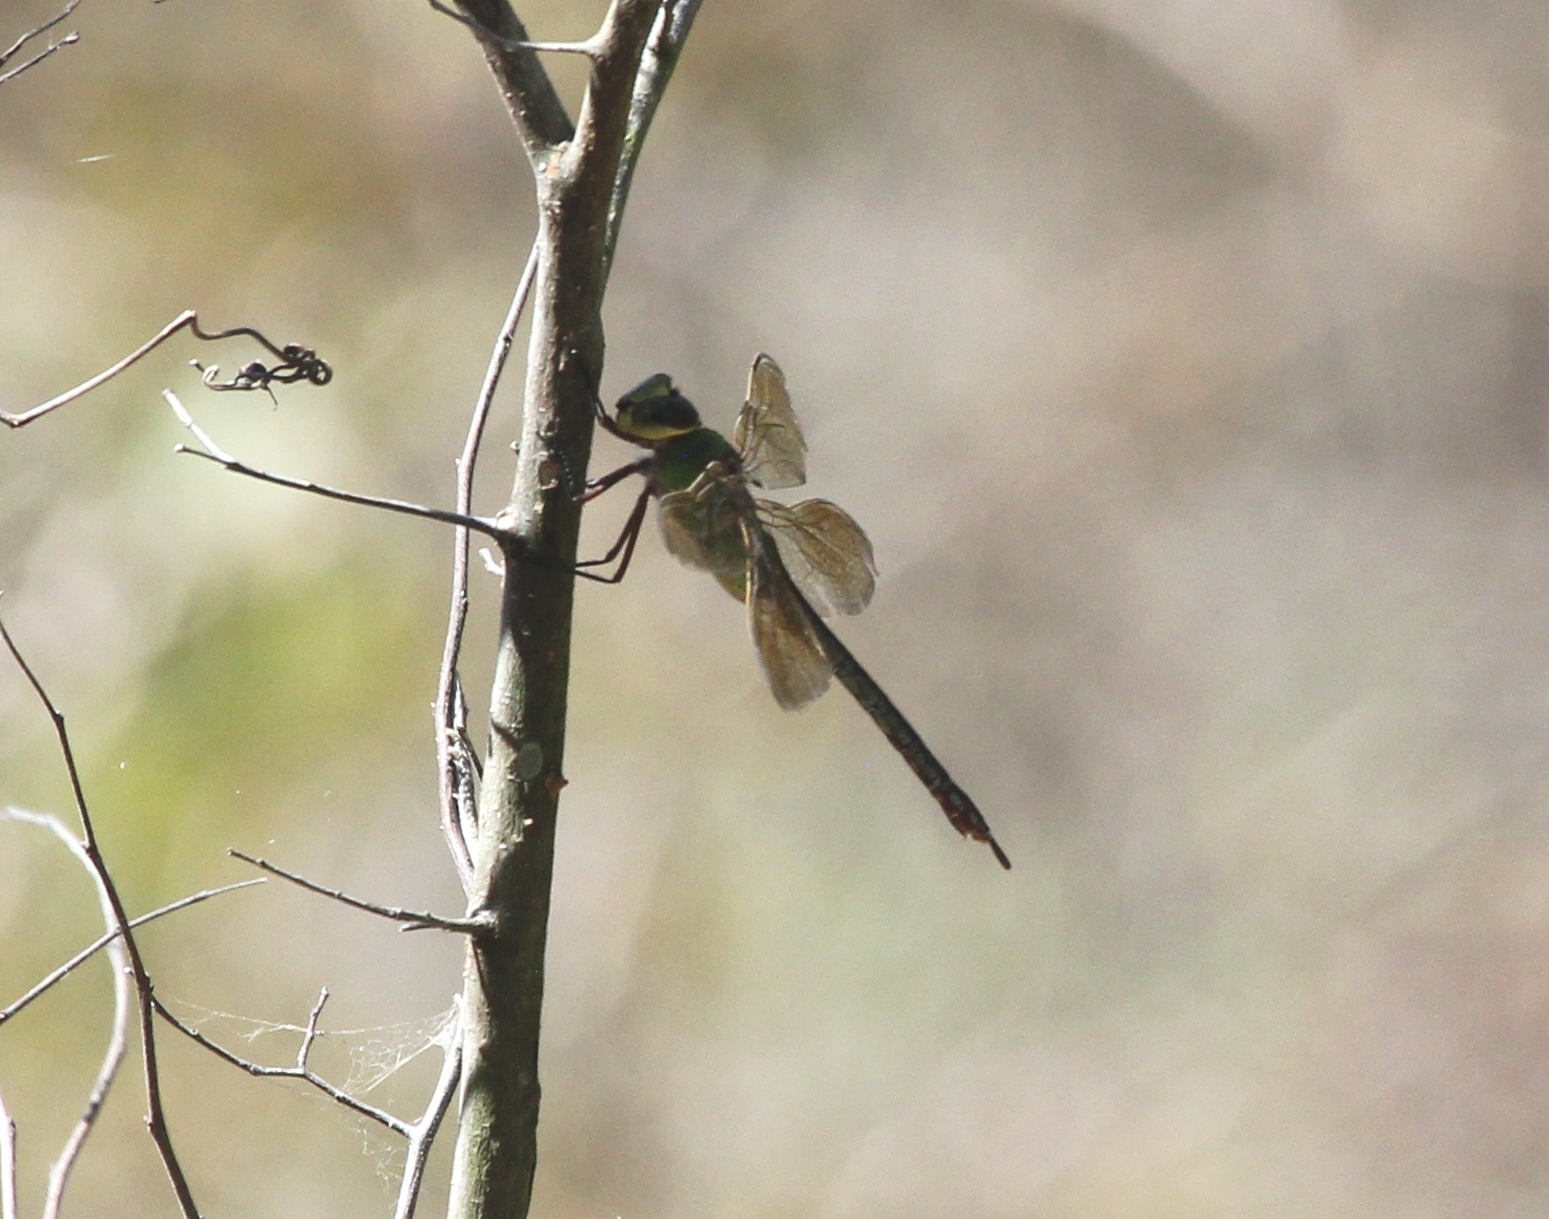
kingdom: Animalia
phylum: Arthropoda
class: Insecta
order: Odonata
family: Aeshnidae
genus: Anax
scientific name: Anax junius
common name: Common green darner
